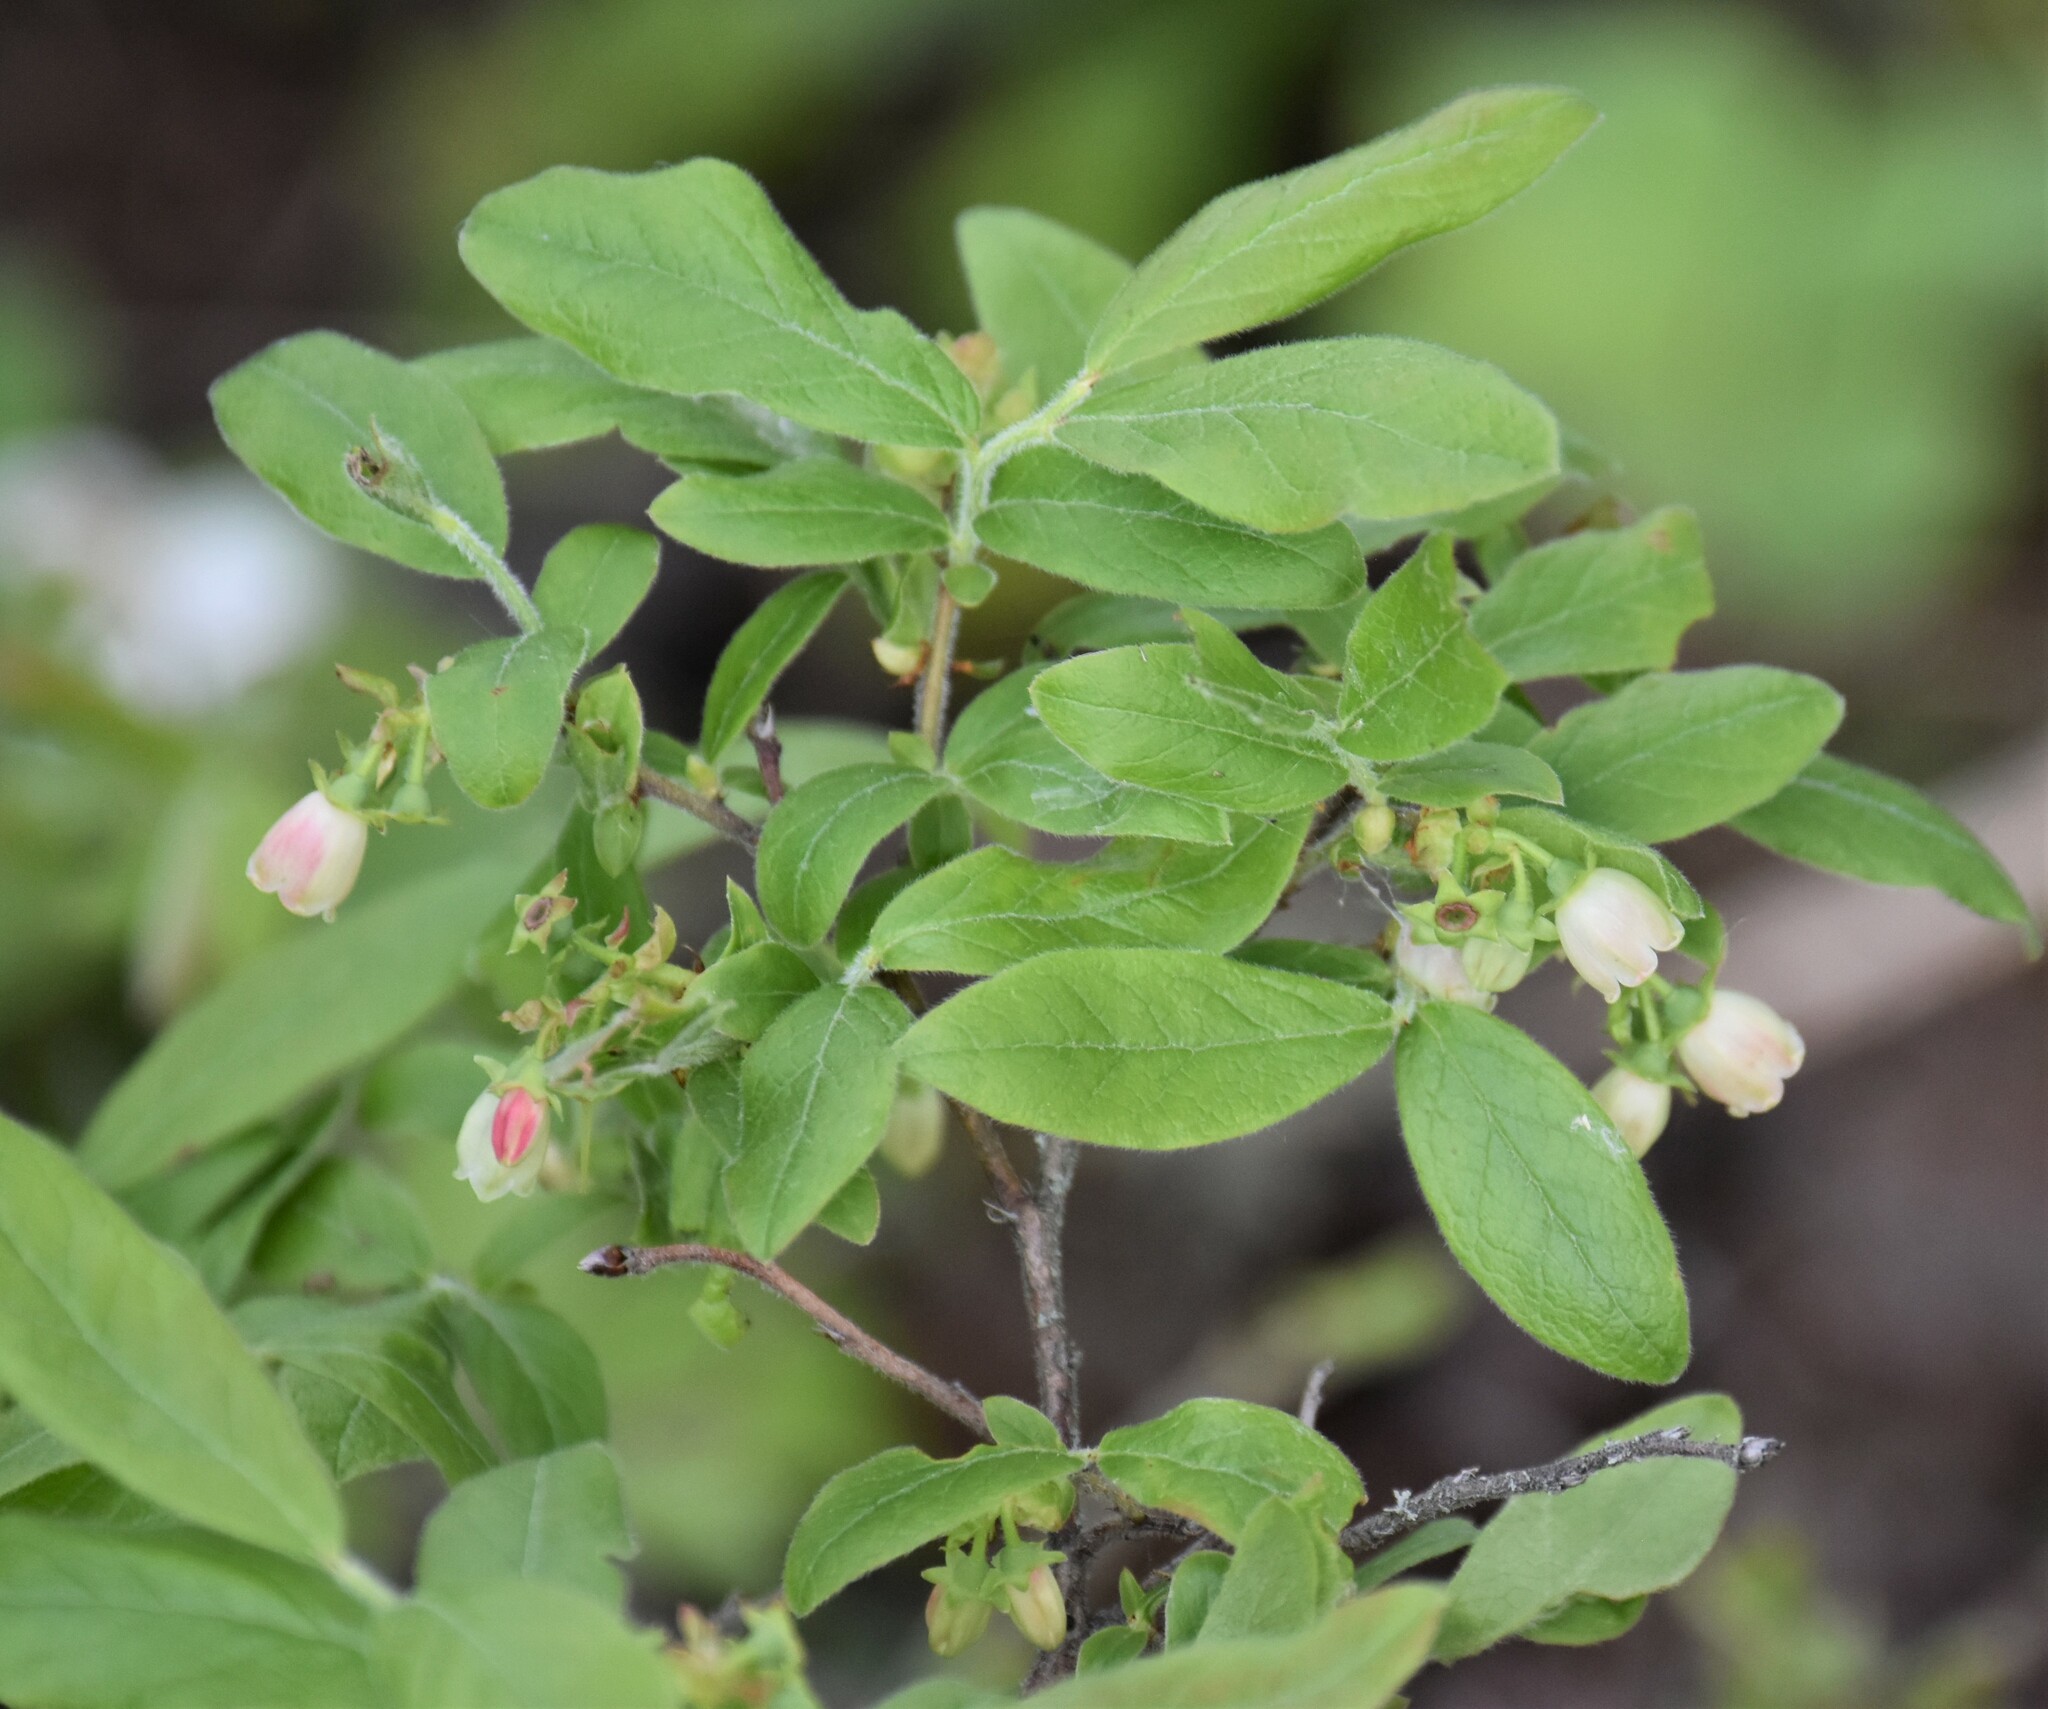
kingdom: Plantae
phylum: Tracheophyta
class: Magnoliopsida
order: Ericales
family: Ericaceae
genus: Vaccinium
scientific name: Vaccinium myrtilloides
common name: Canada blueberry
